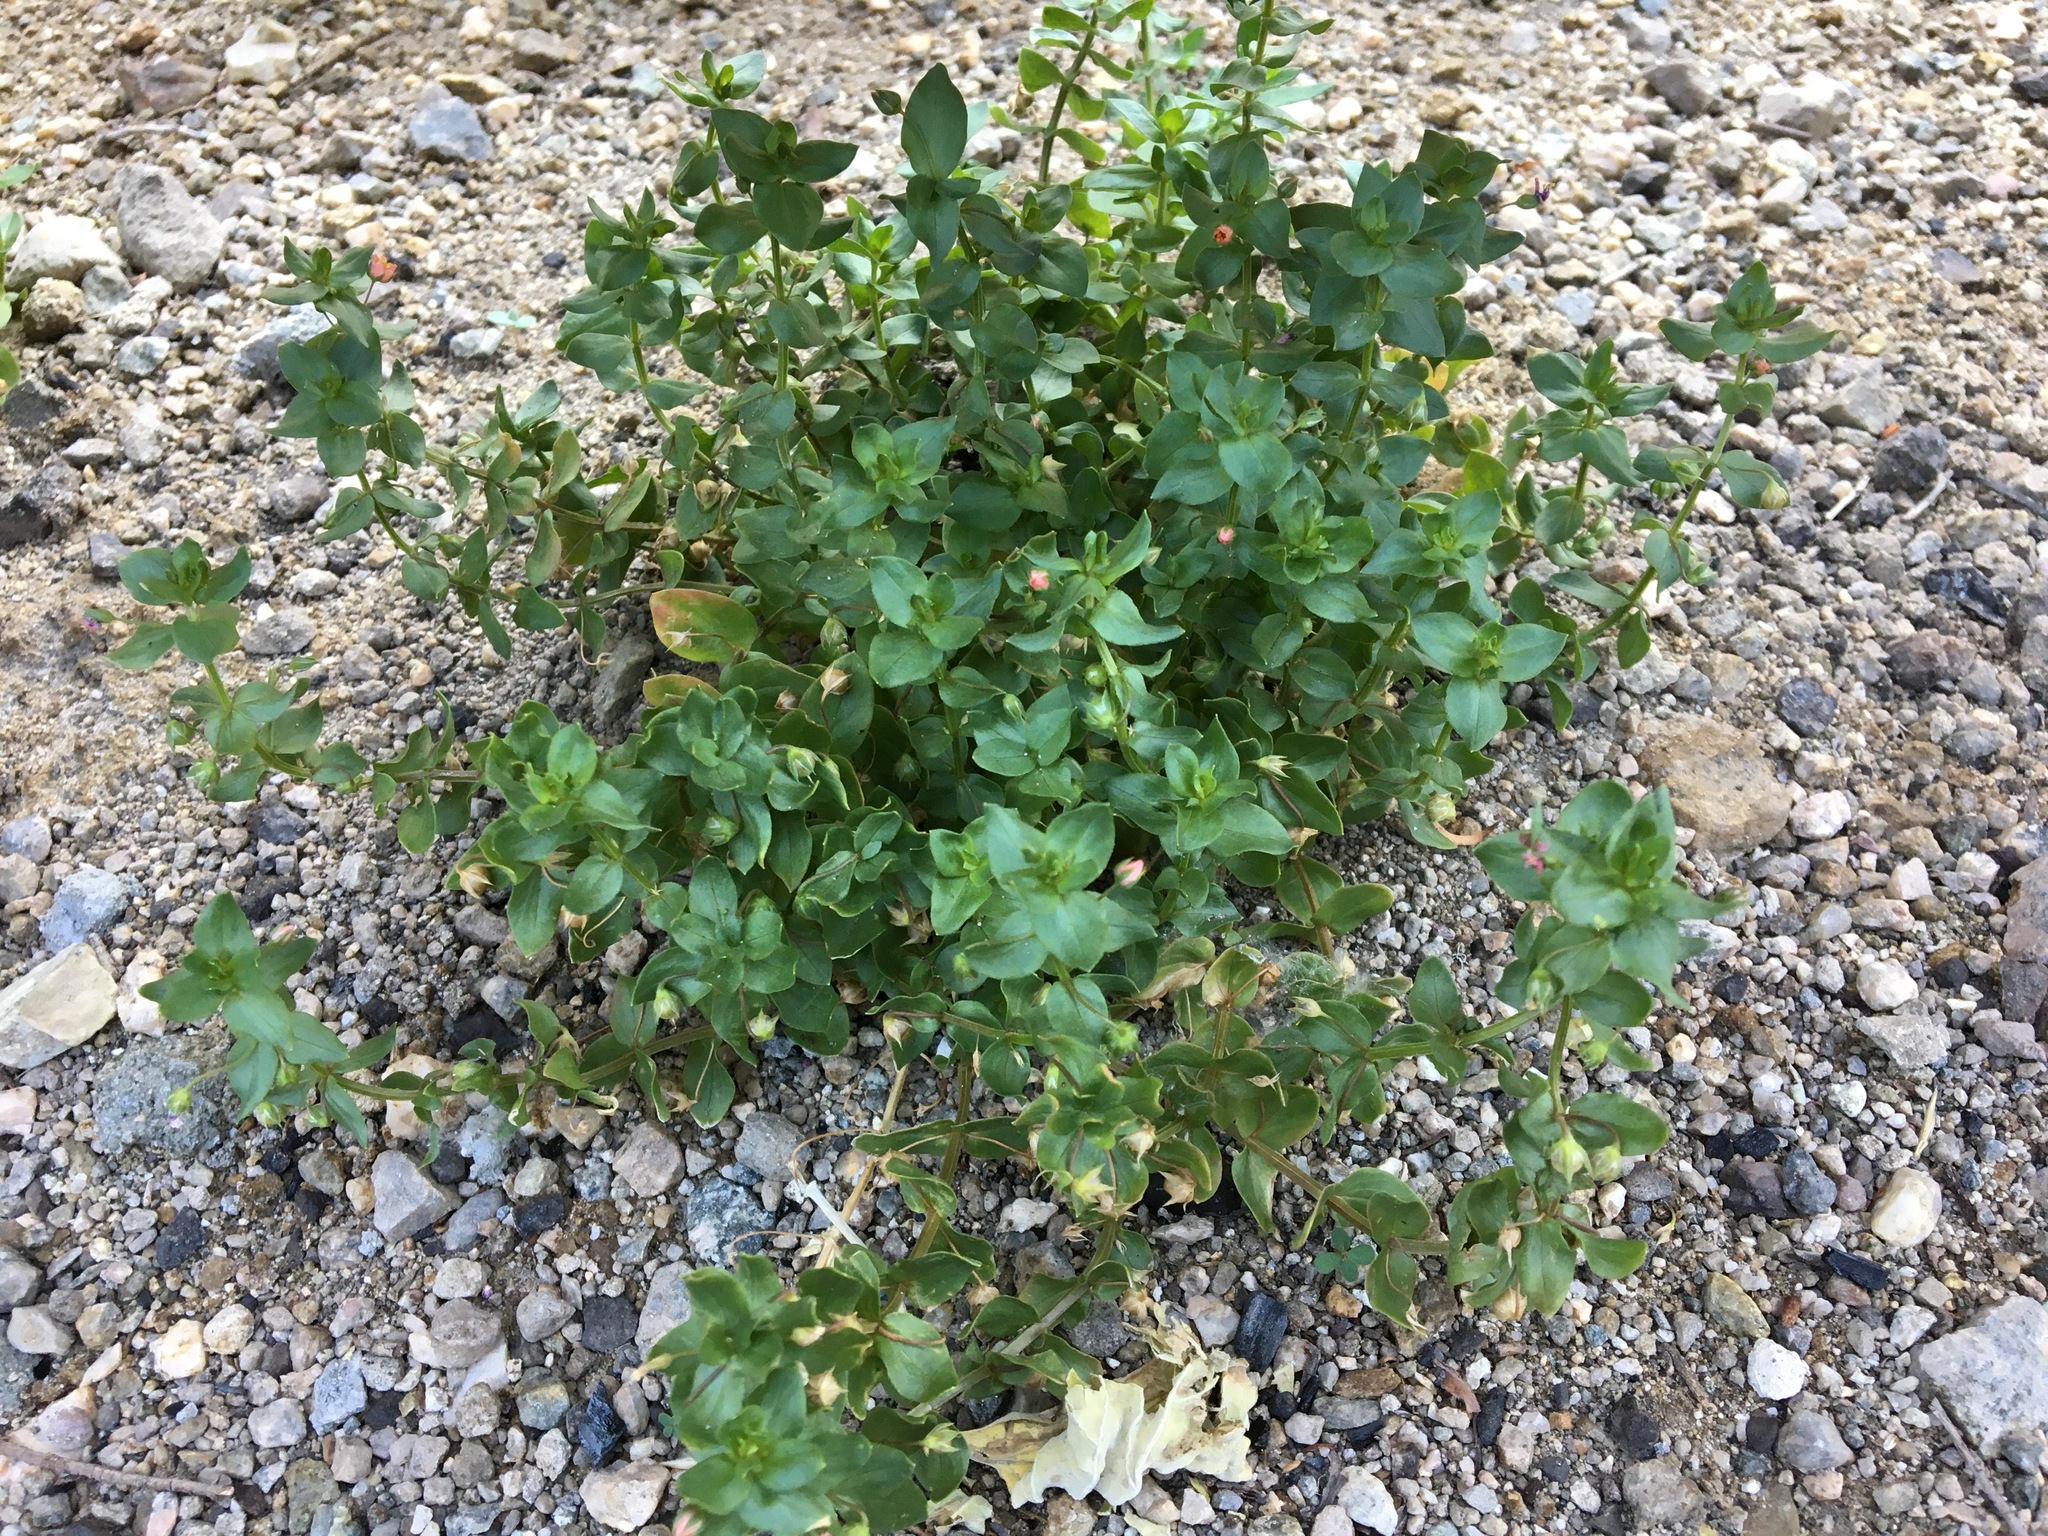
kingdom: Plantae
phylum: Tracheophyta
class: Magnoliopsida
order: Ericales
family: Primulaceae
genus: Lysimachia
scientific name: Lysimachia arvensis
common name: Scarlet pimpernel
